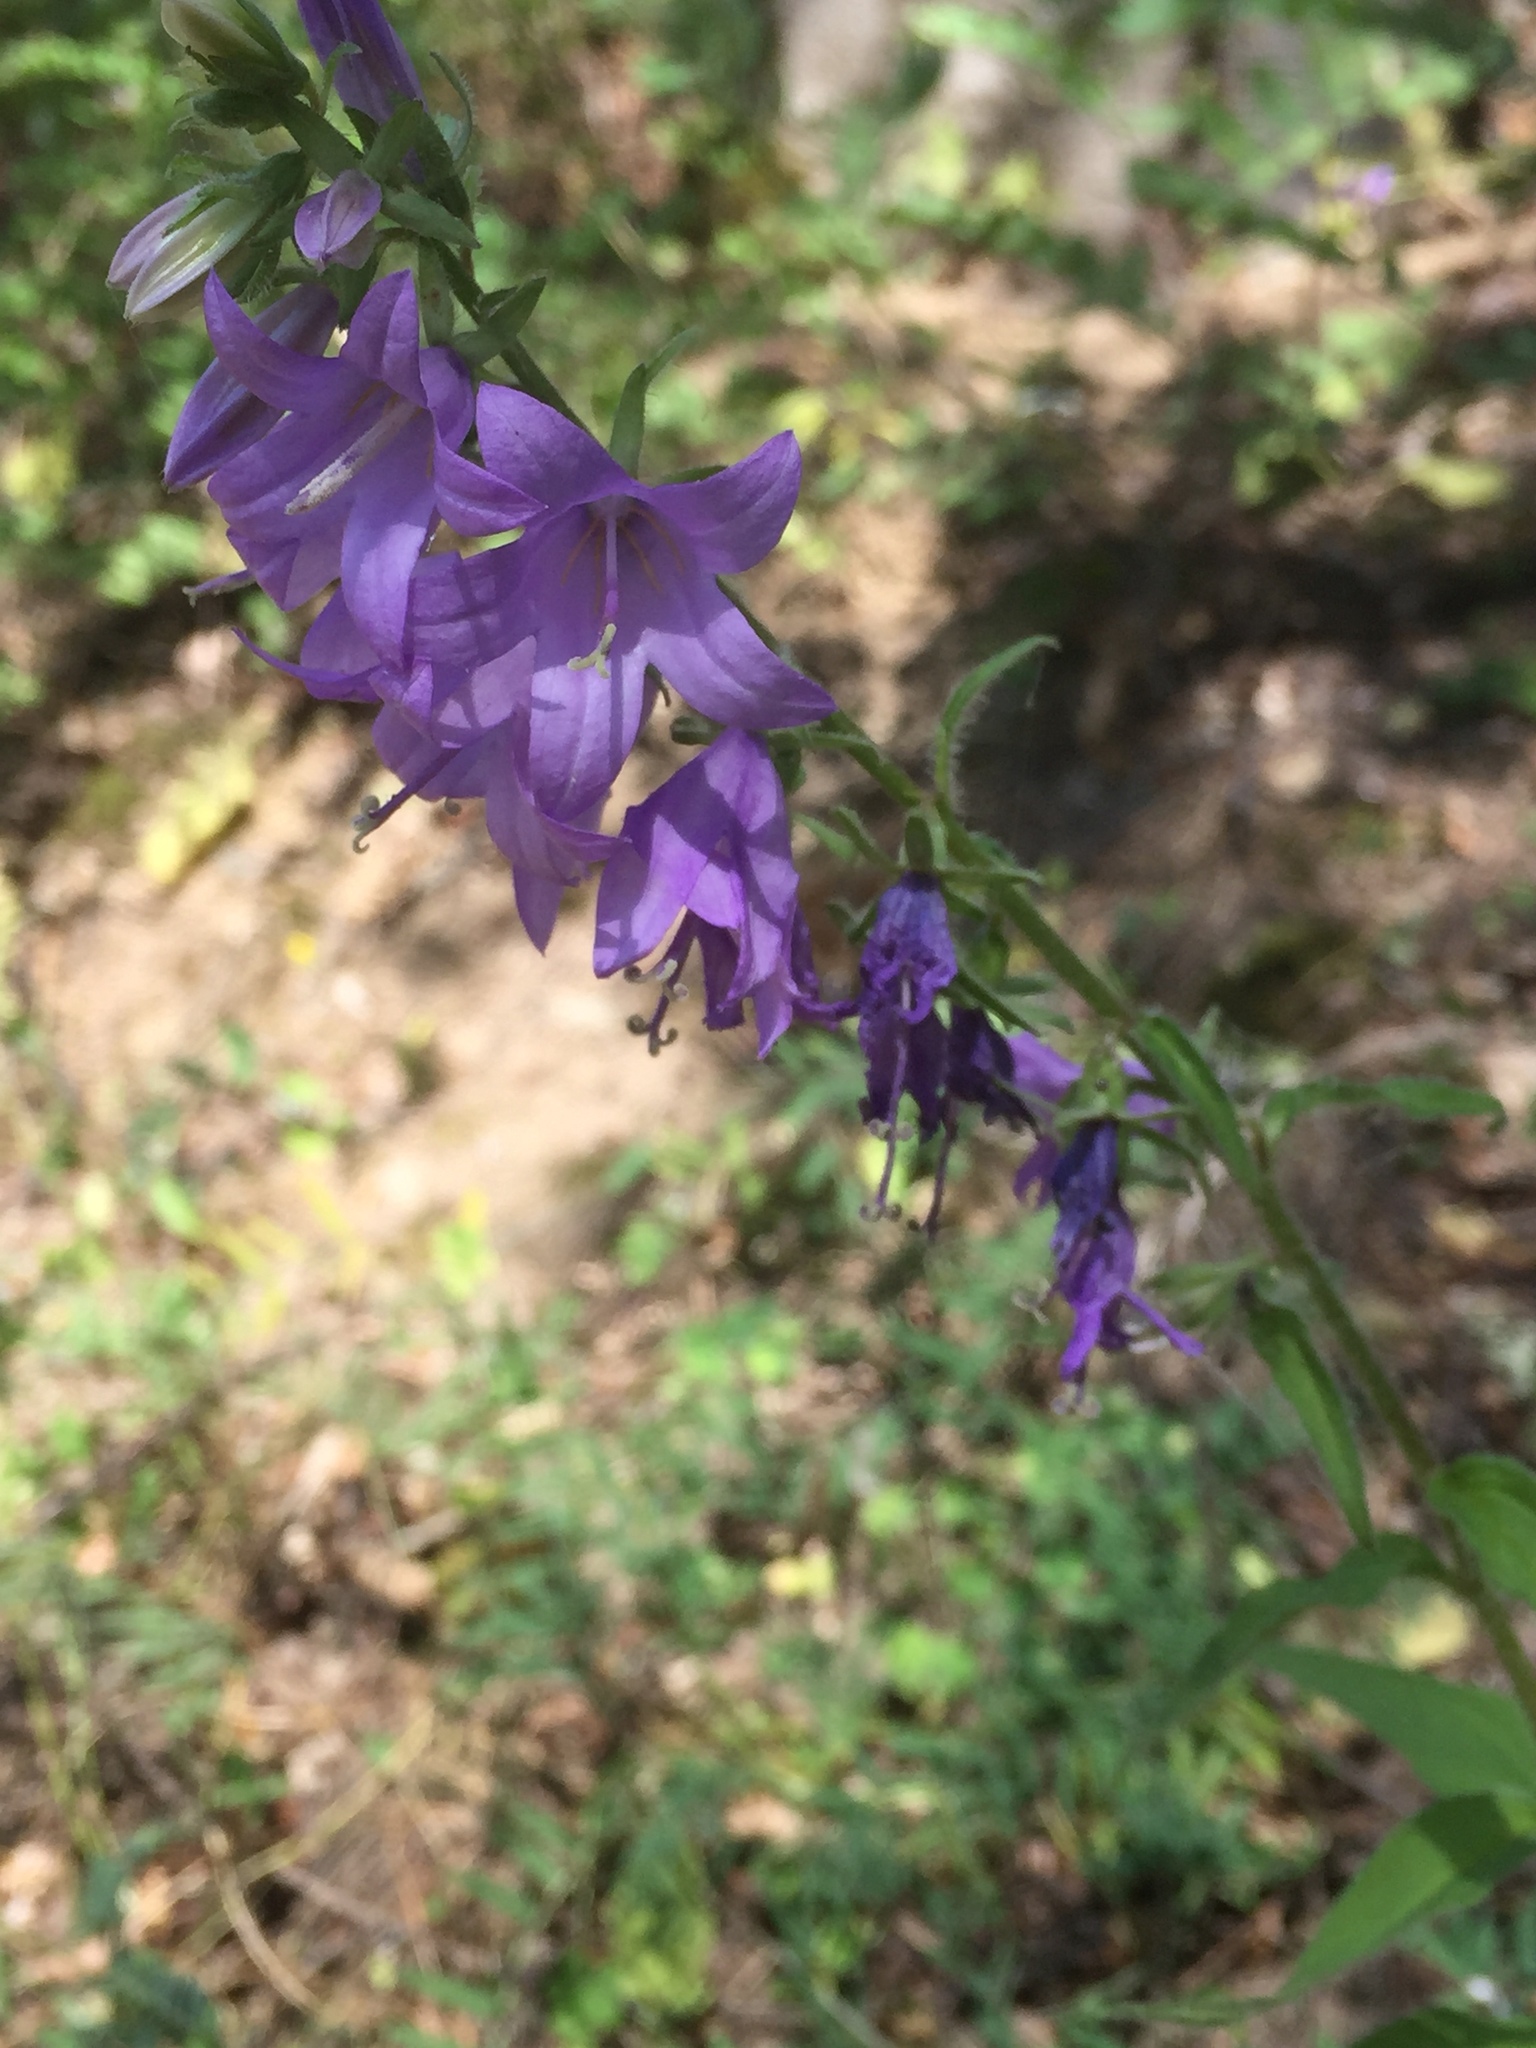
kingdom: Plantae
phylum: Tracheophyta
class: Magnoliopsida
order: Asterales
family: Campanulaceae
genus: Campanula
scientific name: Campanula rapunculoides
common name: Creeping bellflower
